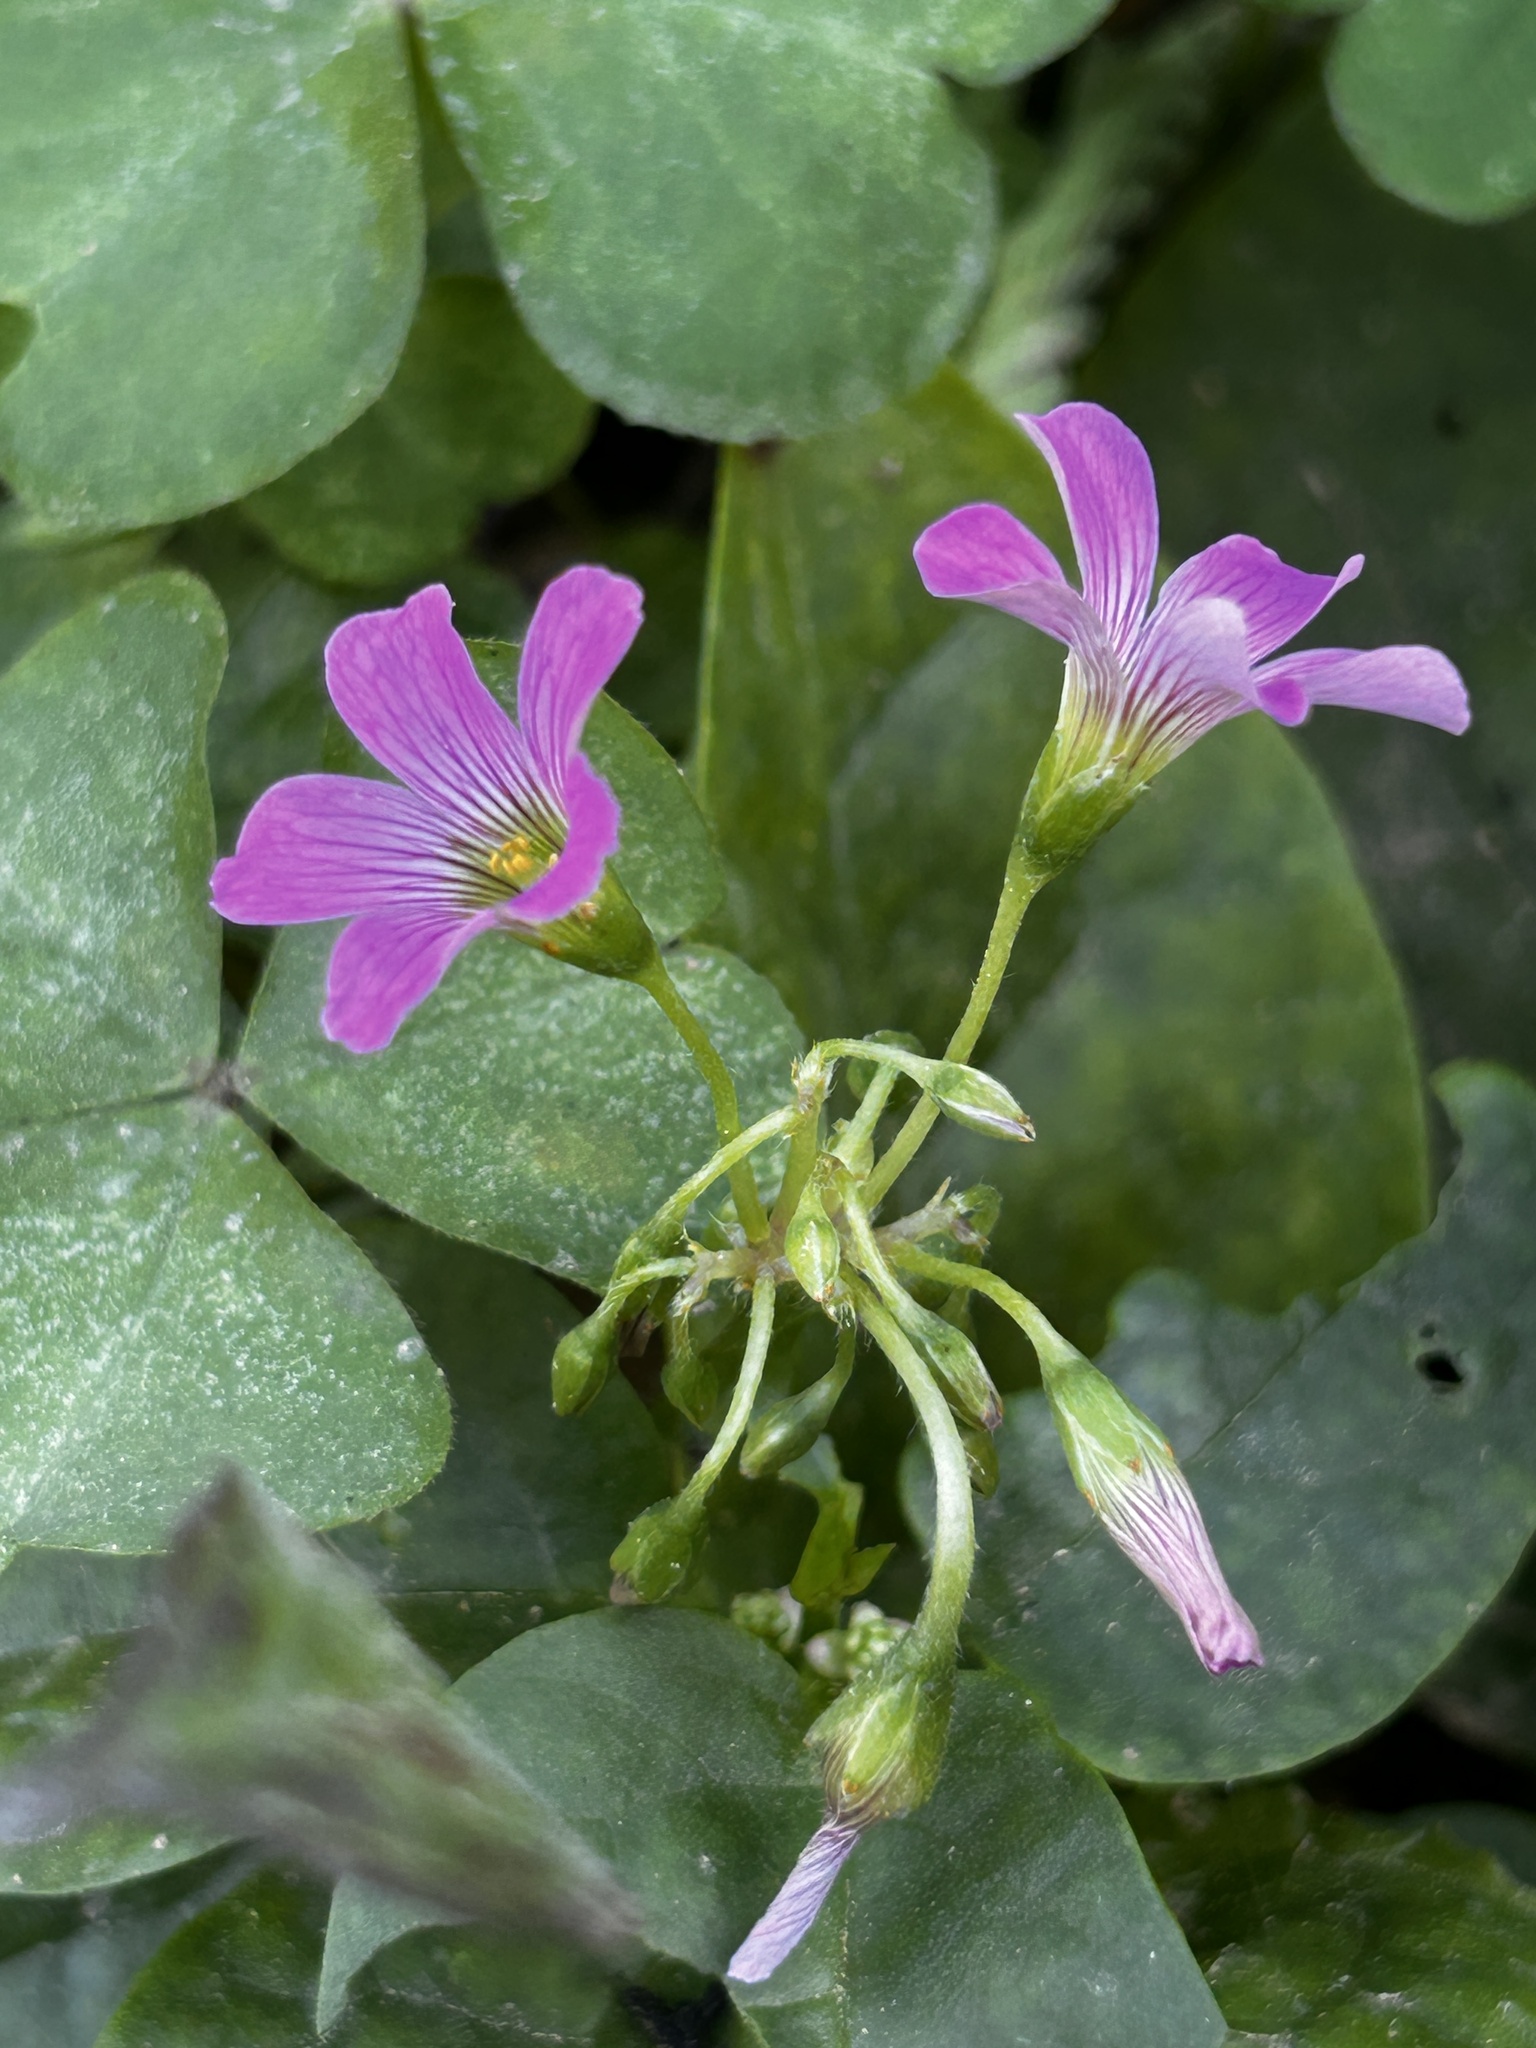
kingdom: Plantae
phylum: Tracheophyta
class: Magnoliopsida
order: Oxalidales
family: Oxalidaceae
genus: Oxalis
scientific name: Oxalis debilis
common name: Large-flowered pink-sorrel
